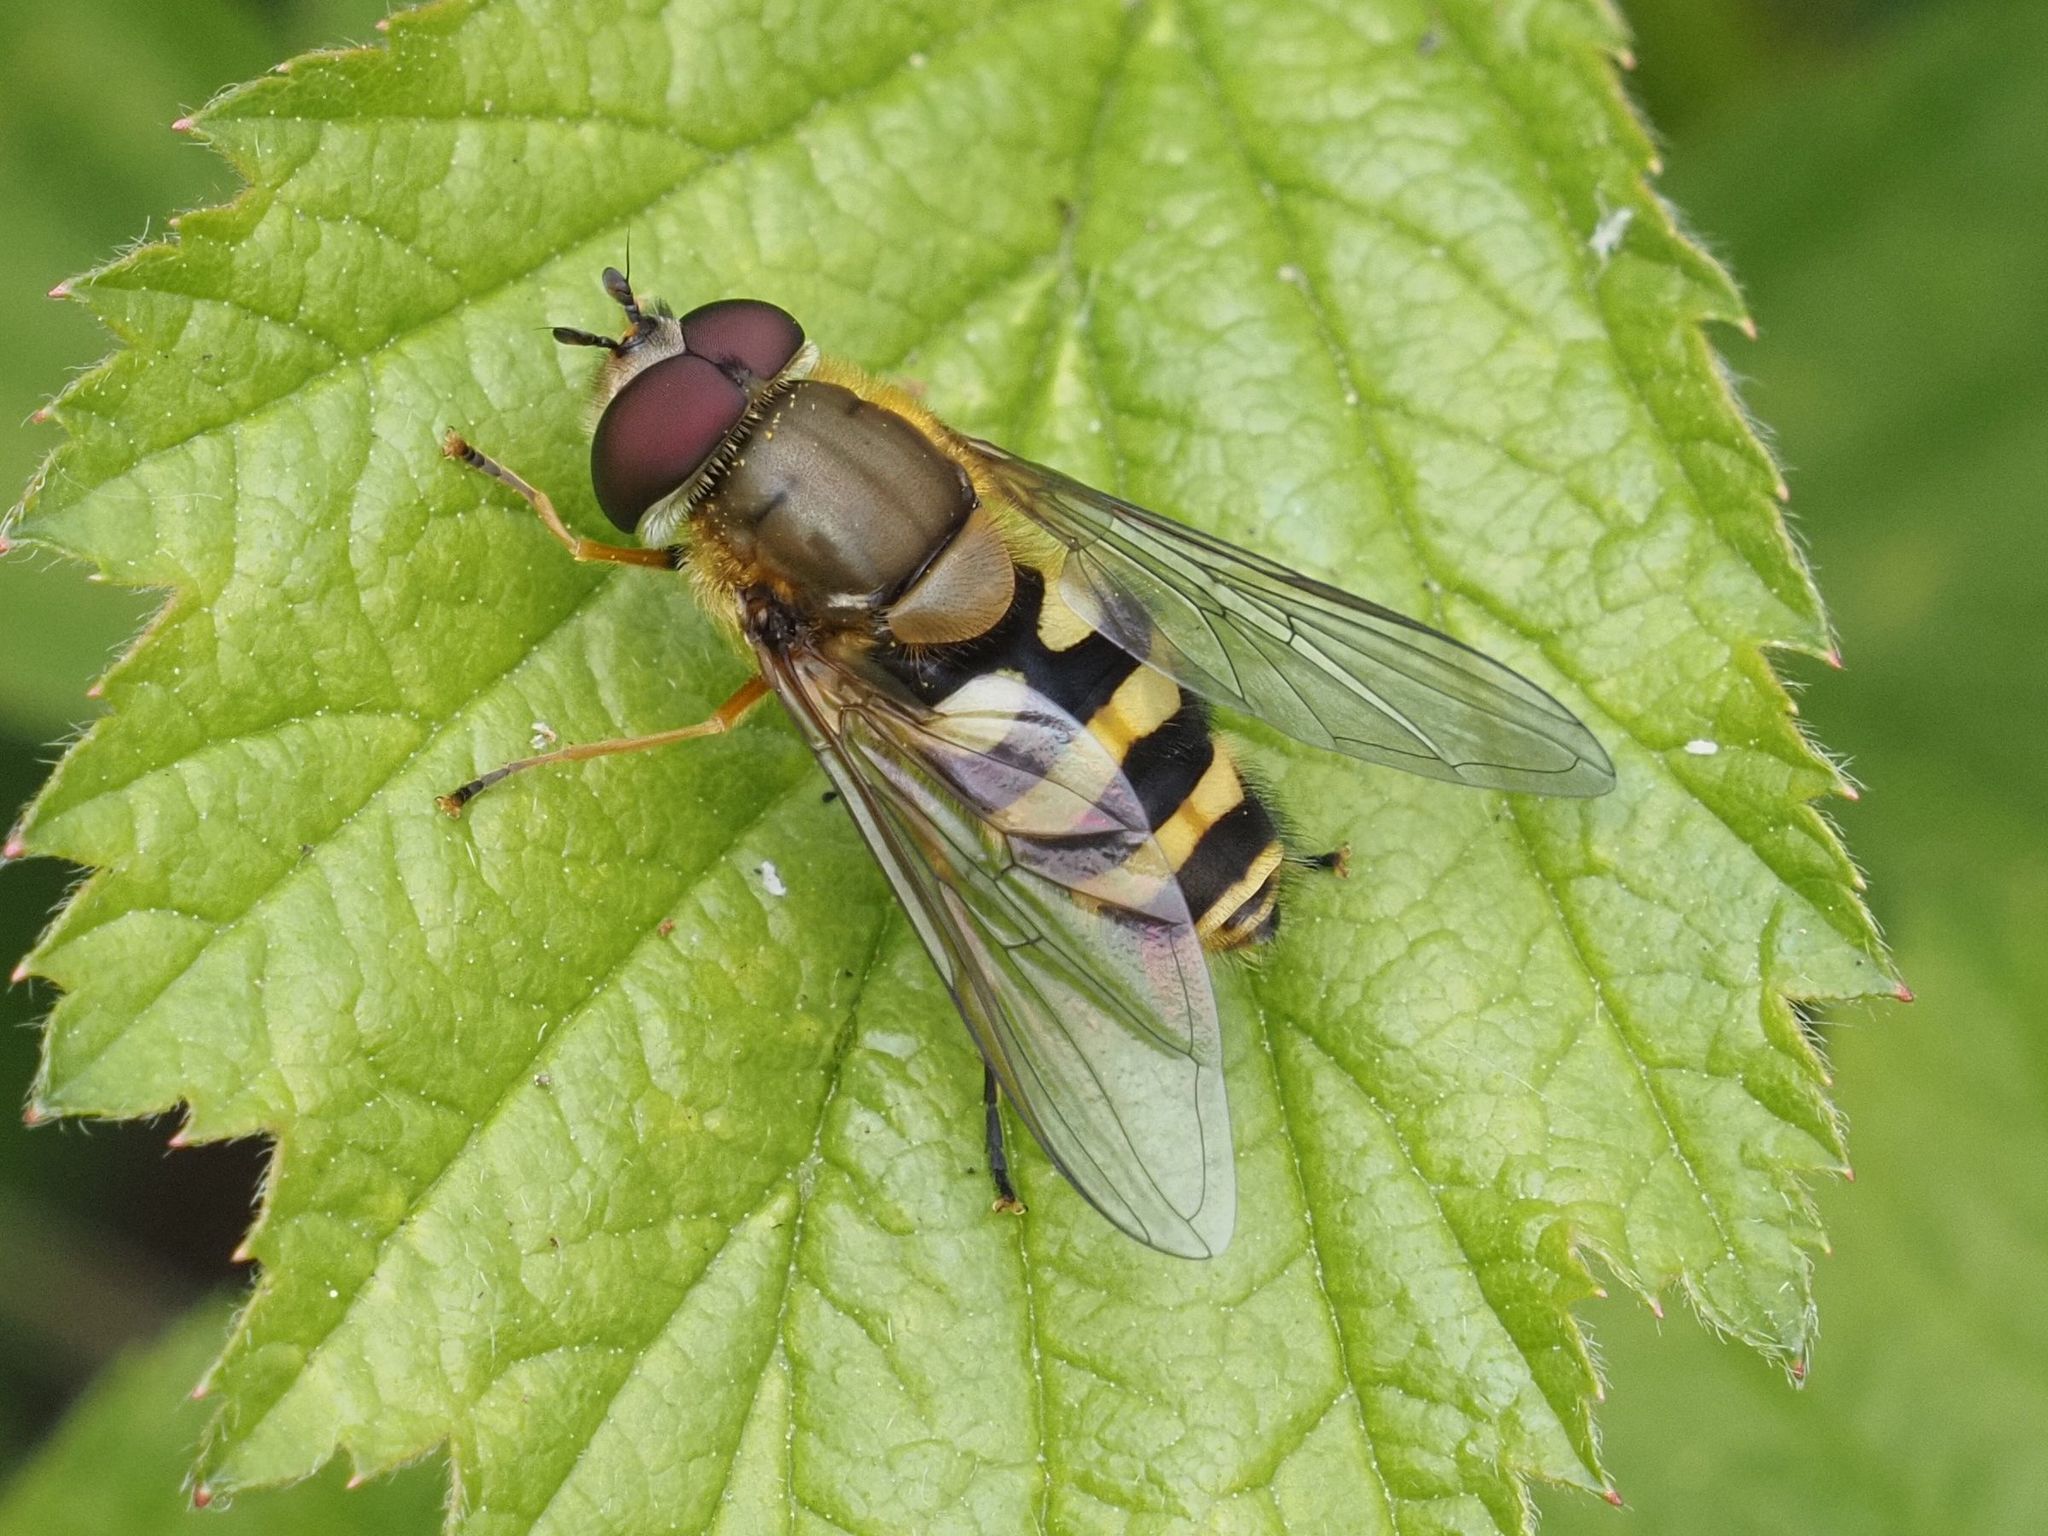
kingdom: Animalia
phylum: Arthropoda
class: Insecta
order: Diptera
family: Syrphidae
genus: Syrphus
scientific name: Syrphus
